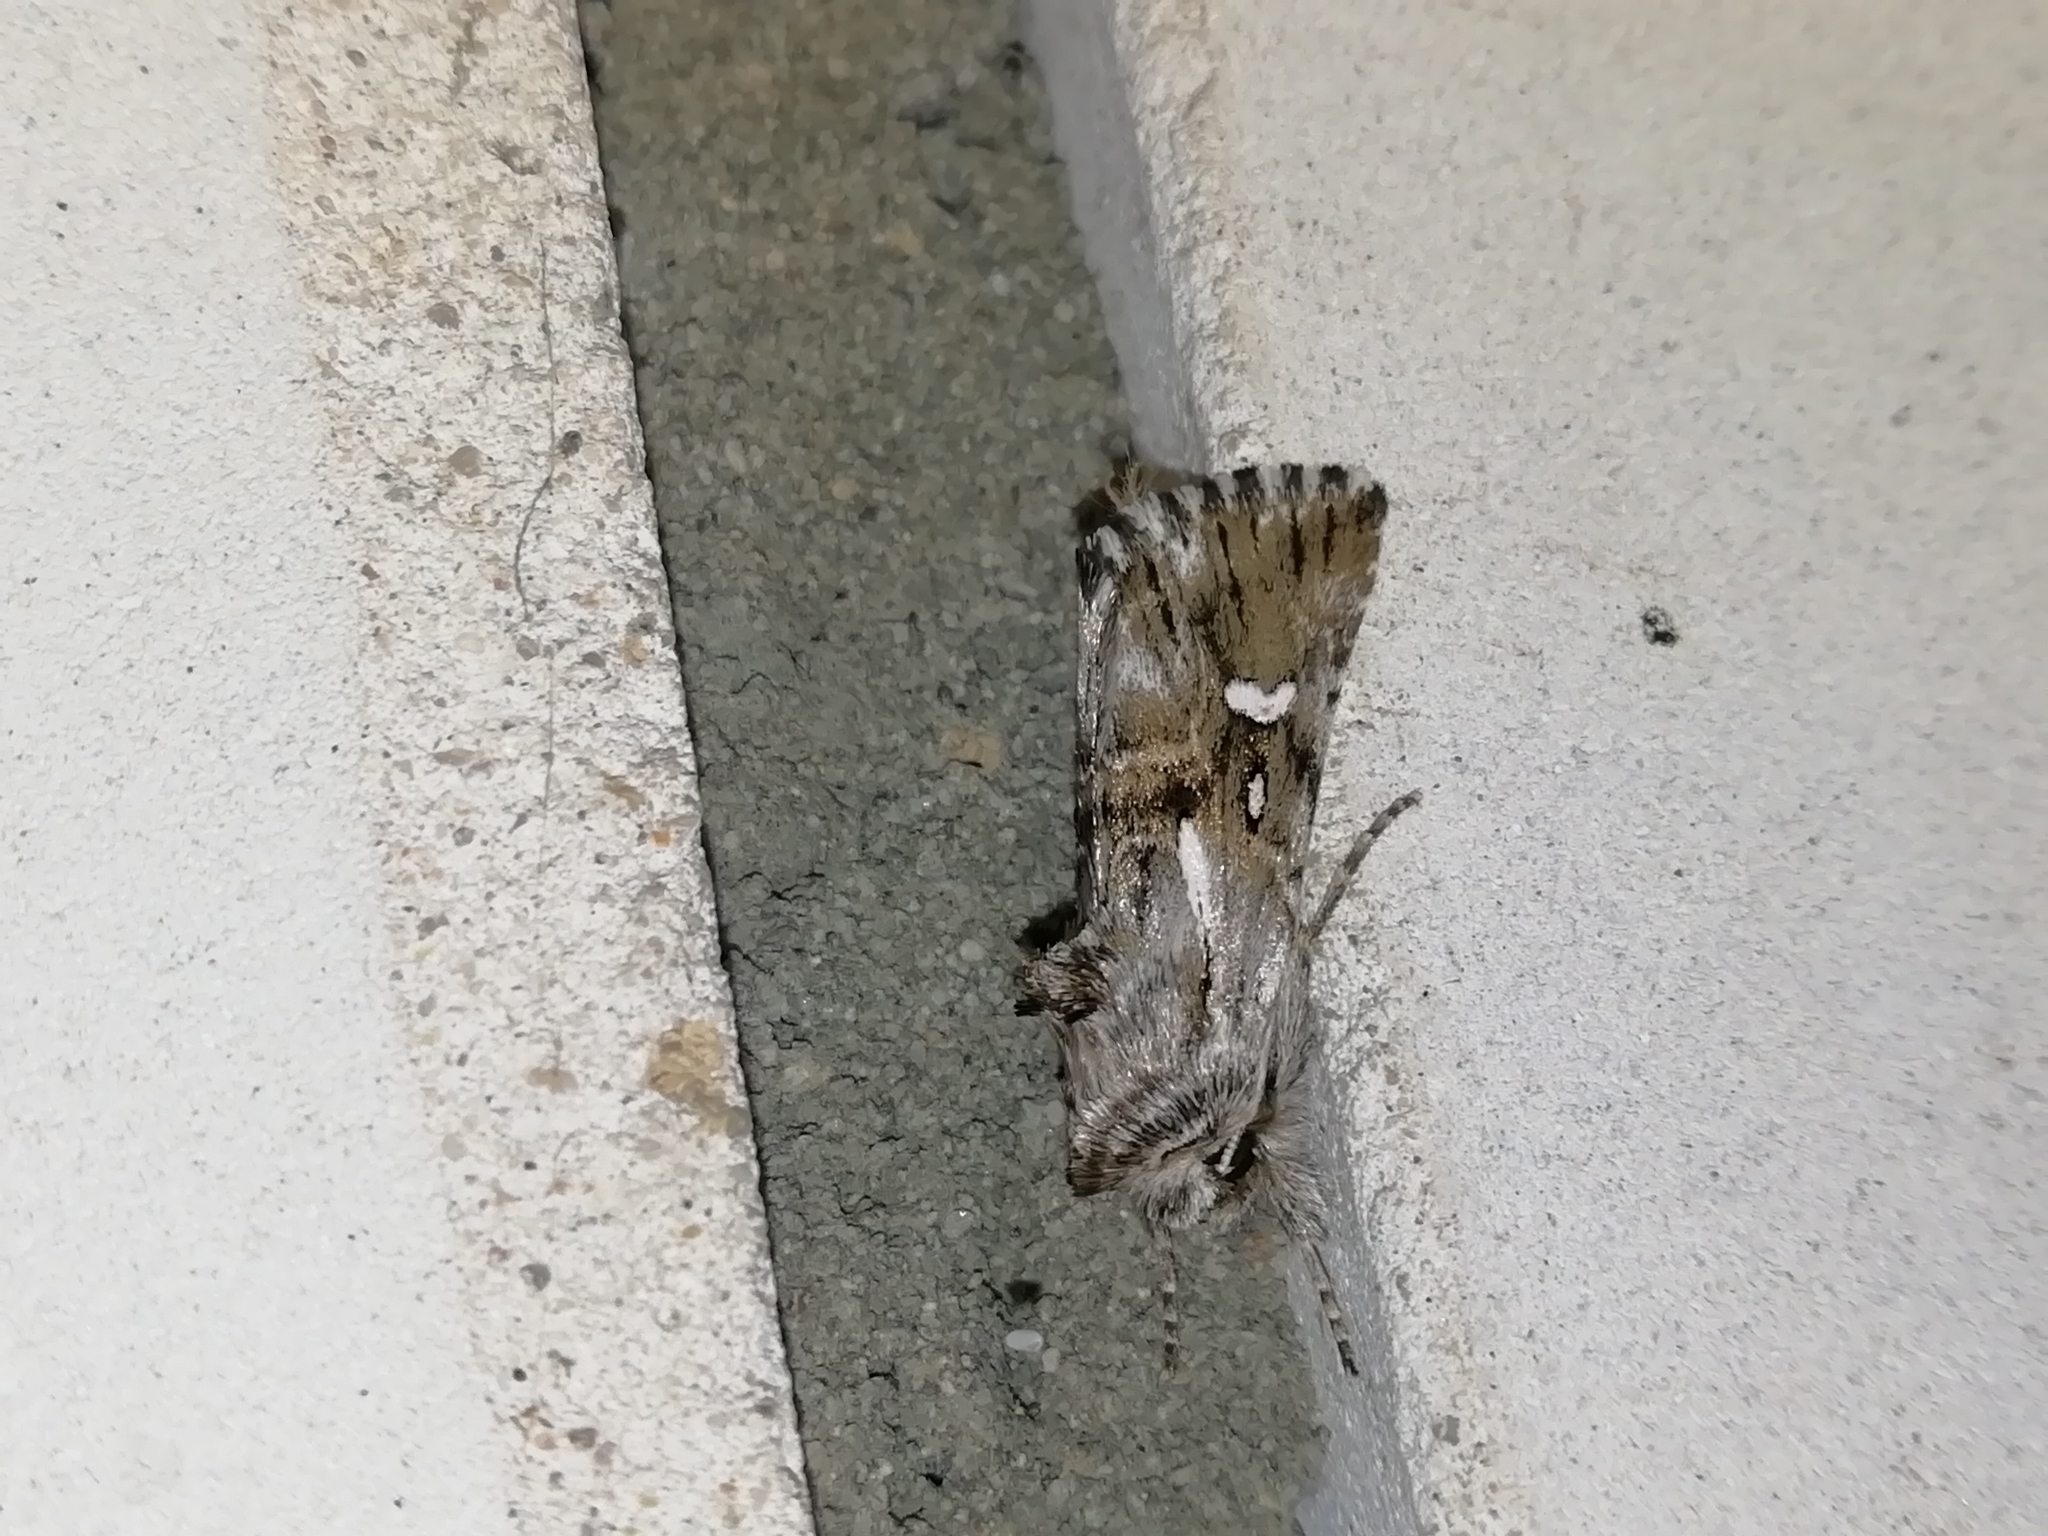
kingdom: Animalia
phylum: Arthropoda
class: Insecta
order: Lepidoptera
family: Noctuidae
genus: Calophasia
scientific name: Calophasia lunula
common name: Toadflax brocade
